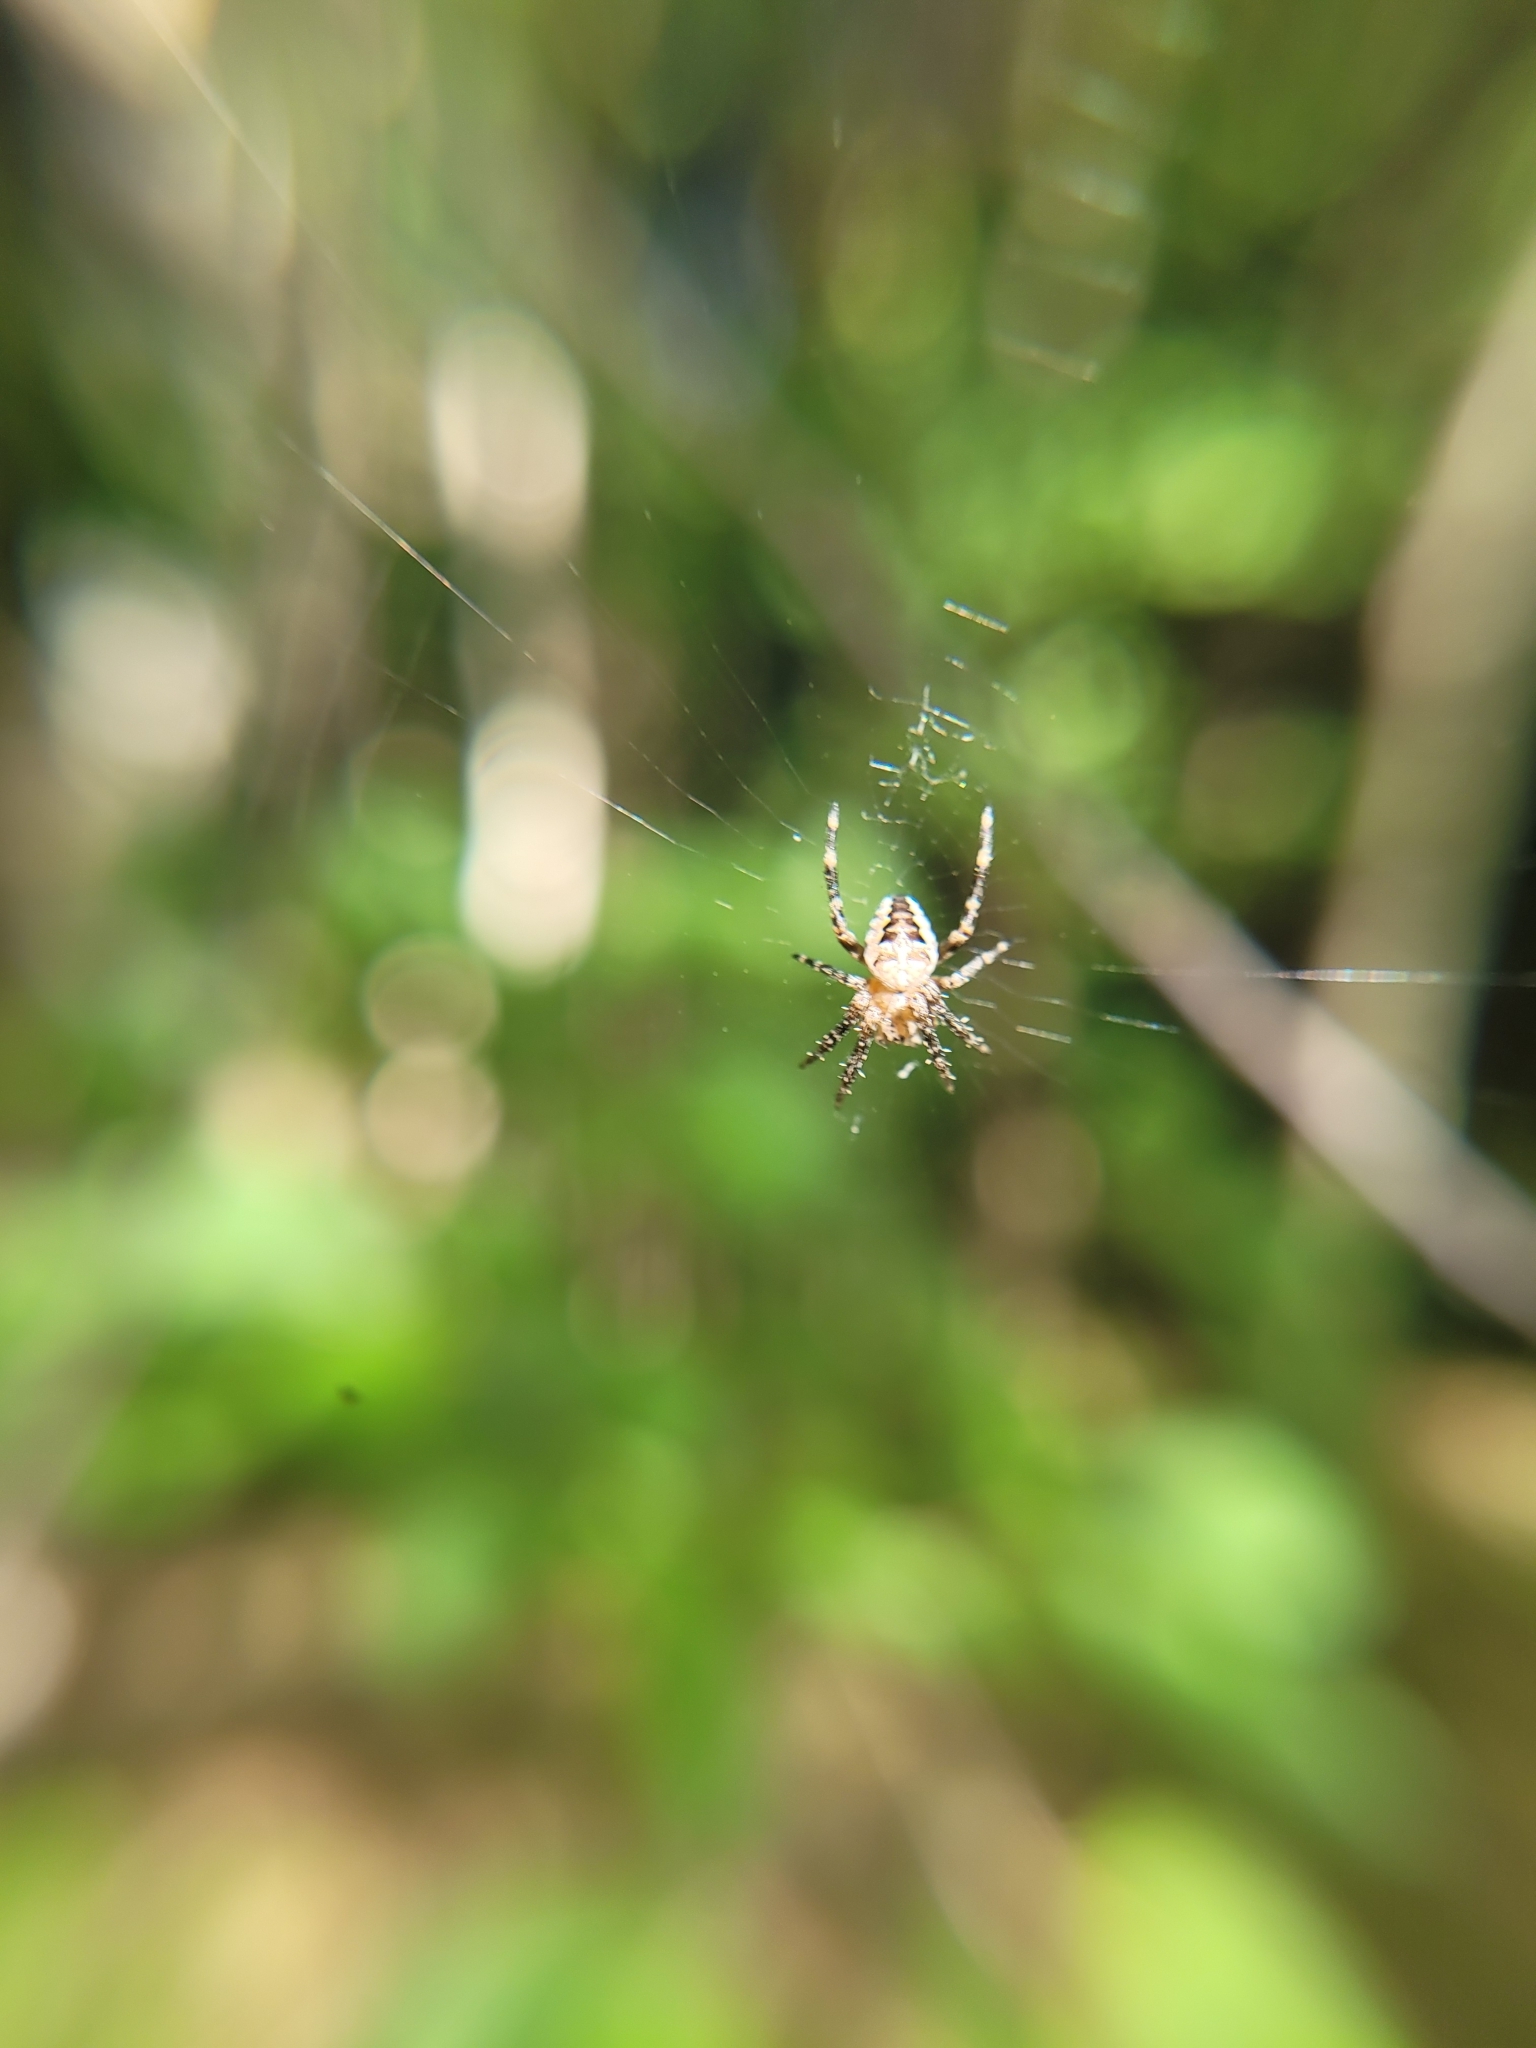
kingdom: Animalia
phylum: Arthropoda
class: Arachnida
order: Araneae
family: Araneidae
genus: Araneus
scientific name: Araneus diadematus
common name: Cross orbweaver
